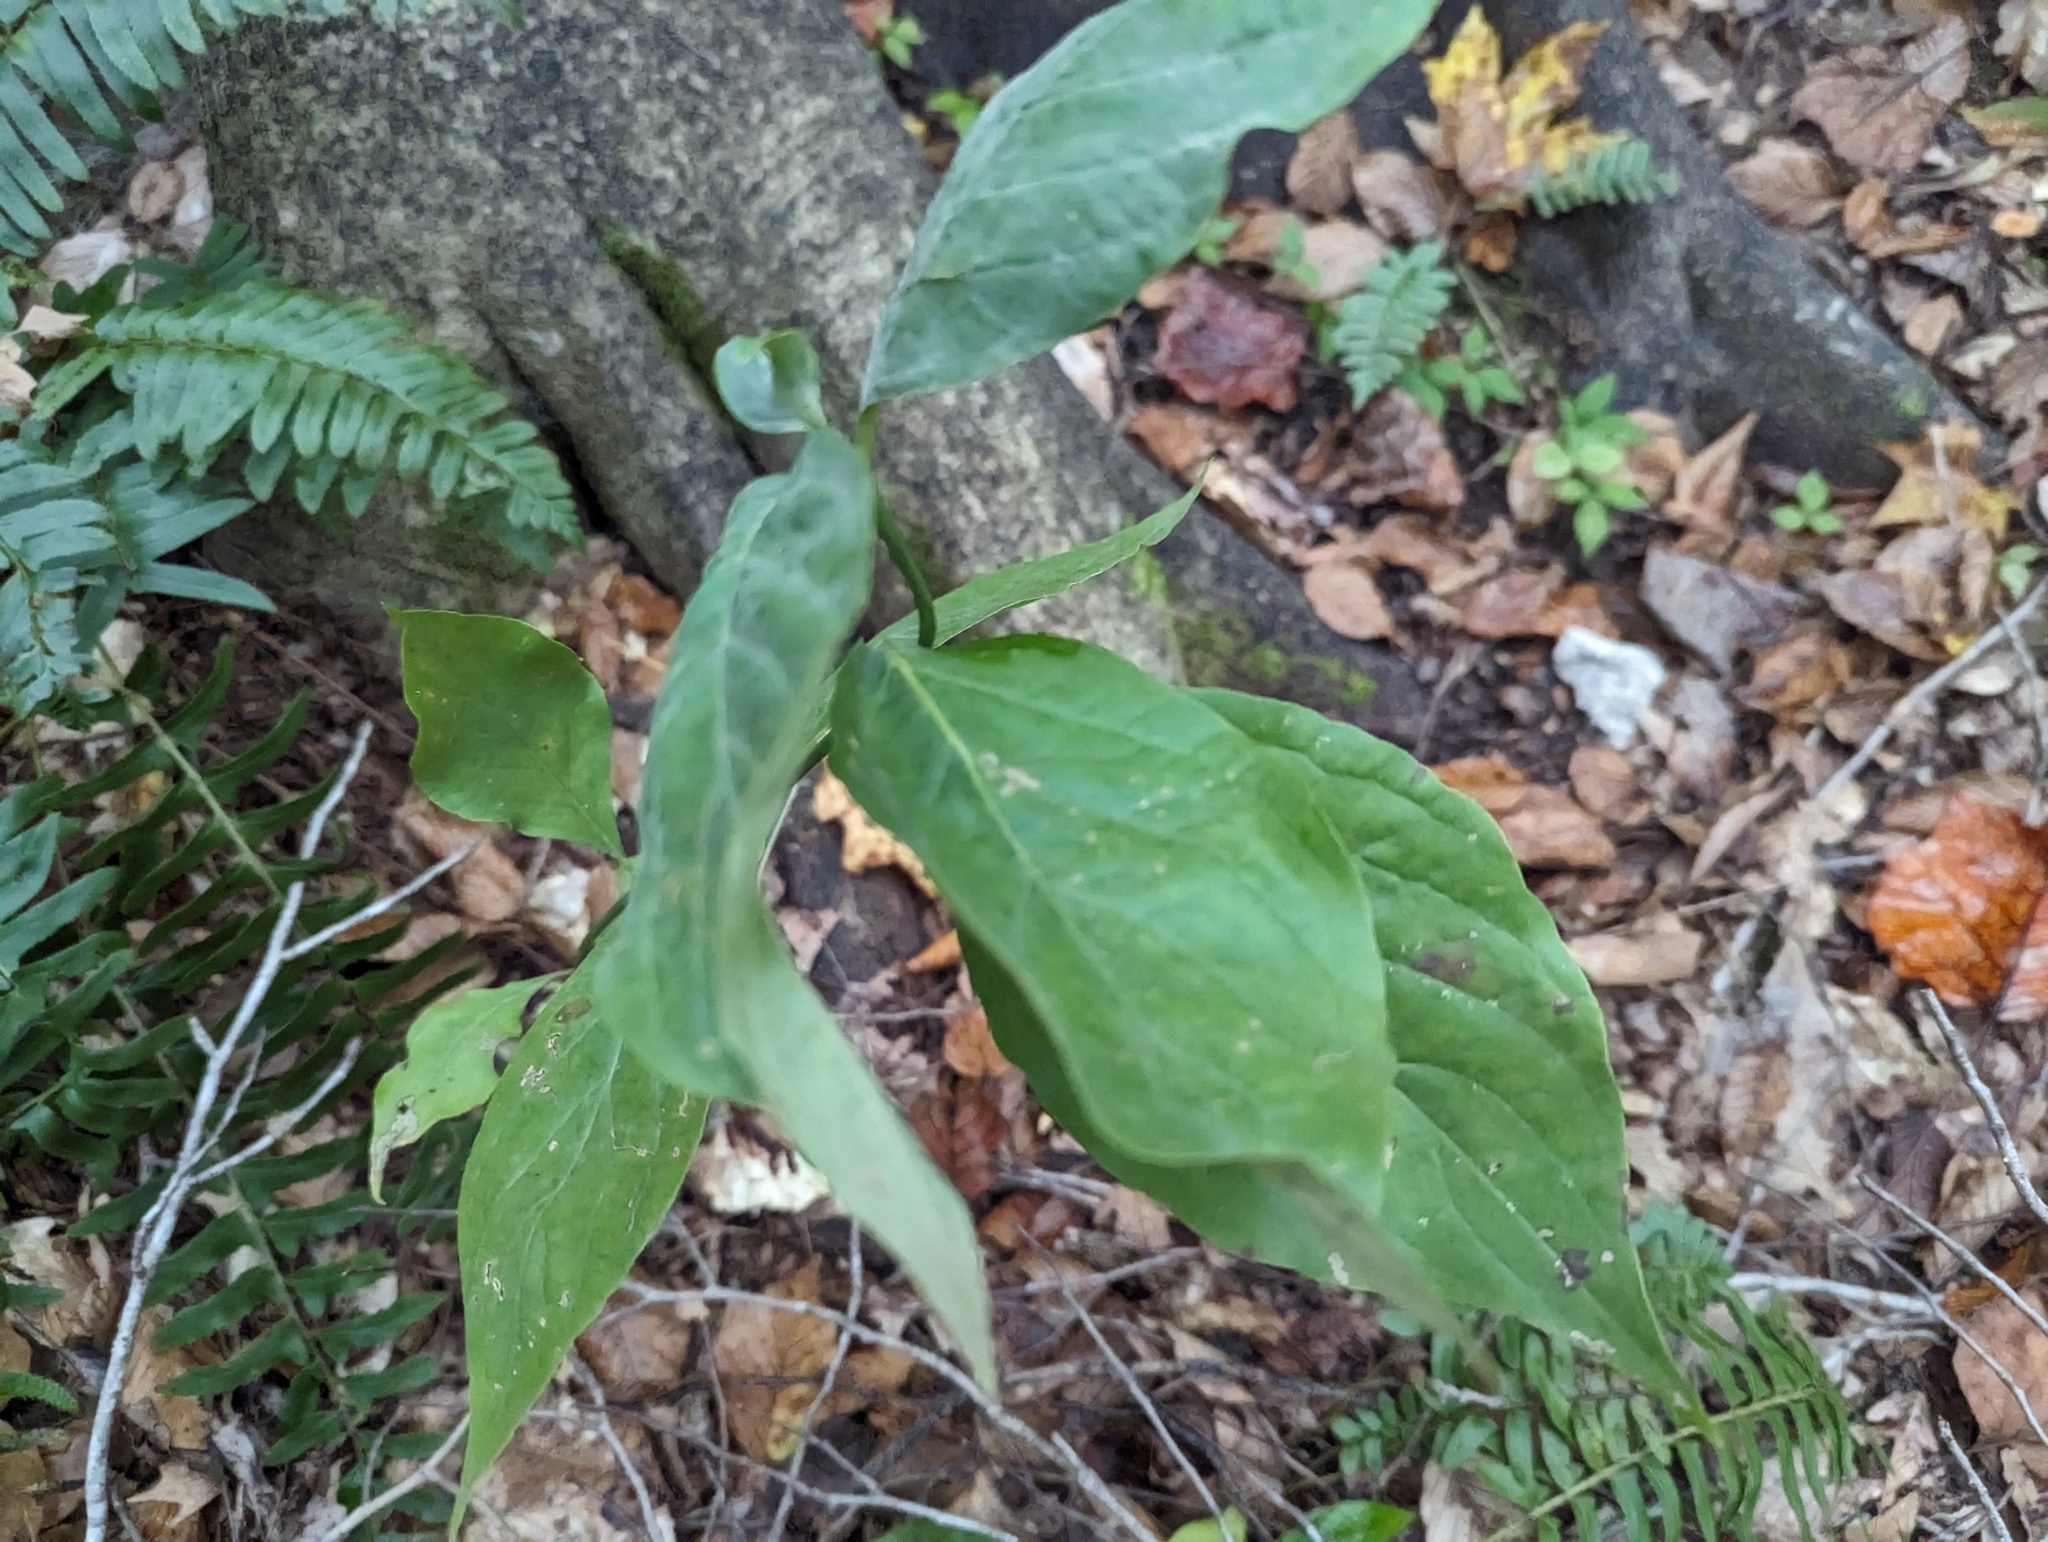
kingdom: Plantae
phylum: Tracheophyta
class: Magnoliopsida
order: Cornales
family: Cornaceae
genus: Cornus
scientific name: Cornus florida
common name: Flowering dogwood
